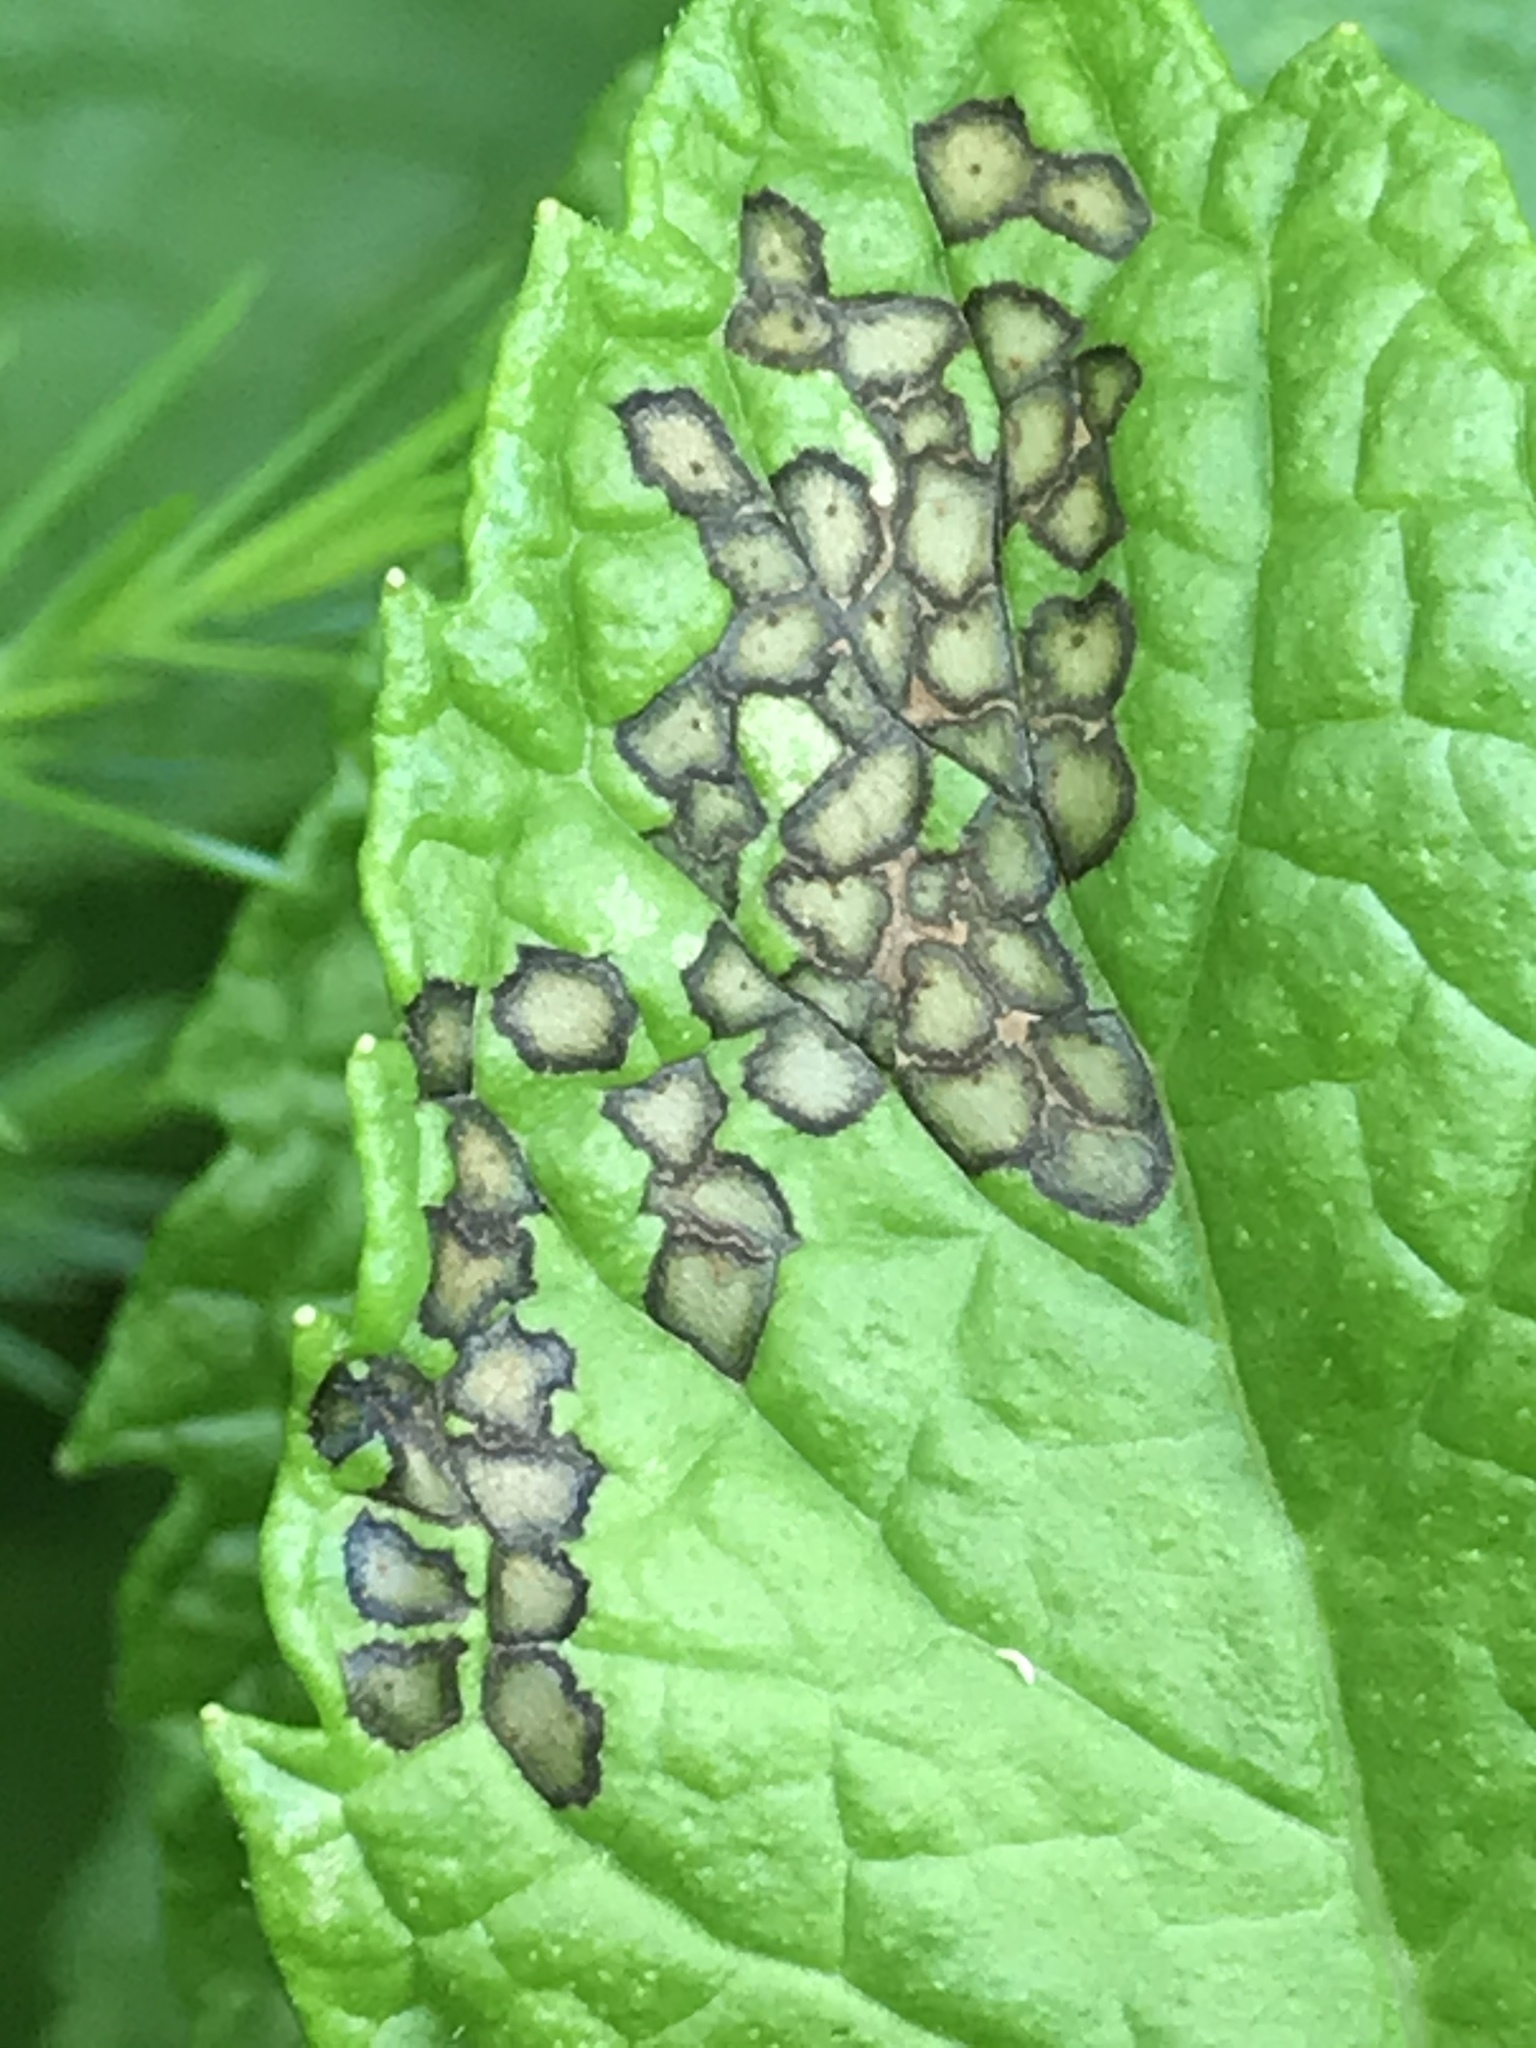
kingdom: Animalia
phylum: Arthropoda
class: Insecta
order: Hemiptera
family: Miridae
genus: Poecilocapsus
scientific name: Poecilocapsus lineatus
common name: Four-lined plant bug
